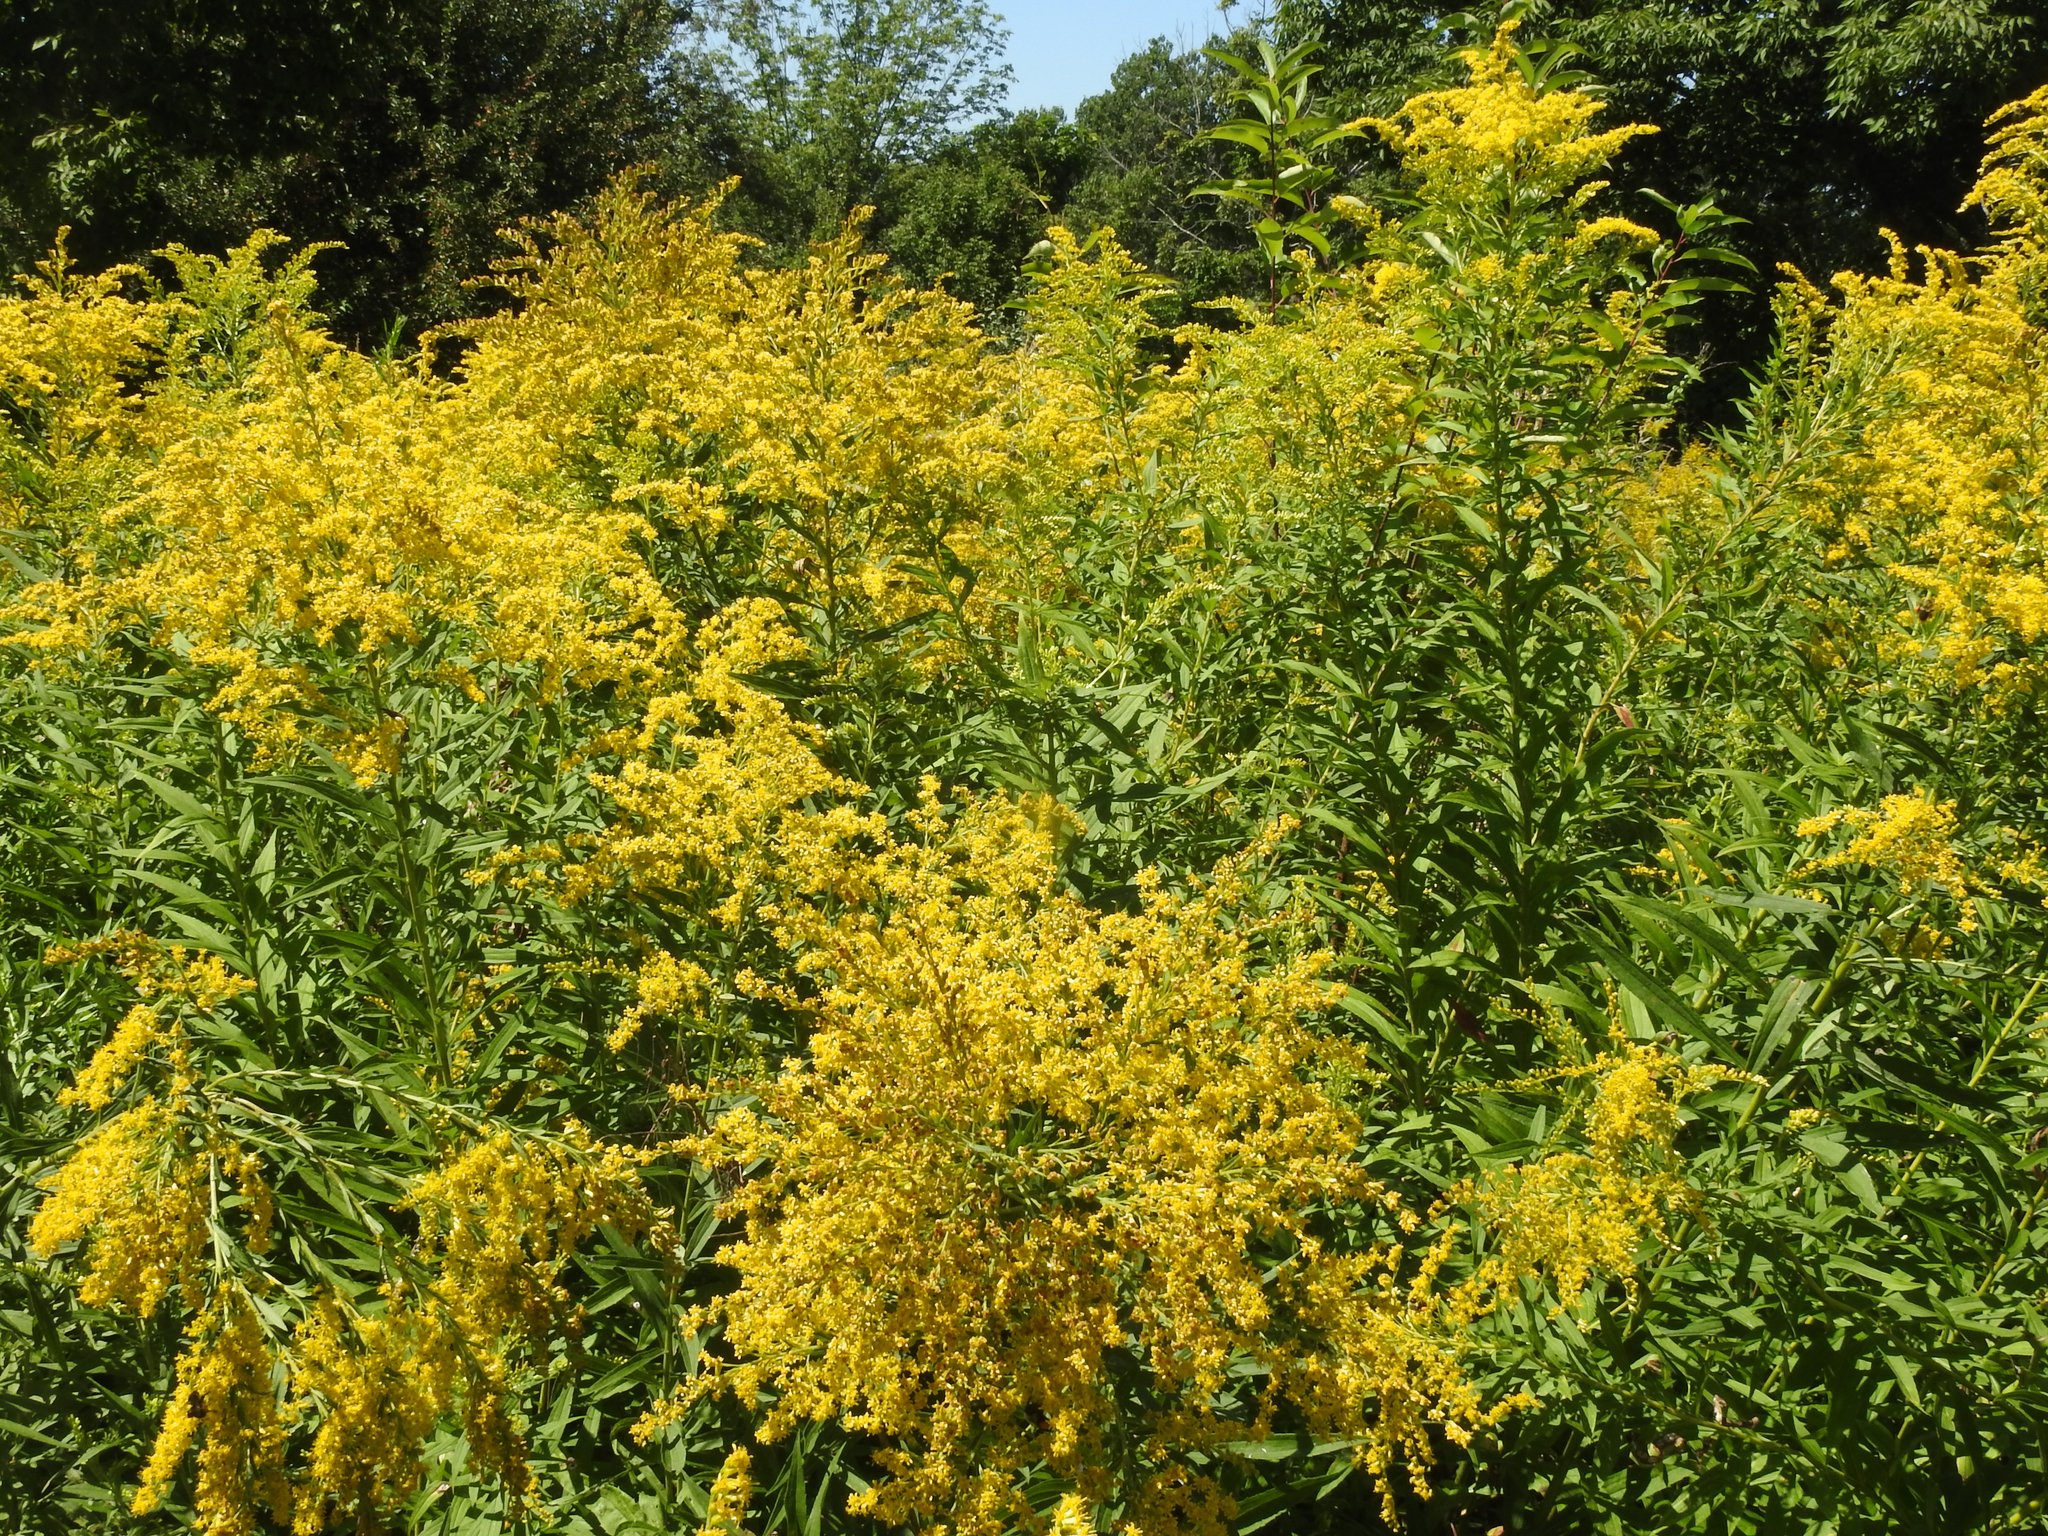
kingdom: Plantae
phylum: Tracheophyta
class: Magnoliopsida
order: Asterales
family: Asteraceae
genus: Solidago
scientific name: Solidago canadensis
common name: Canada goldenrod
